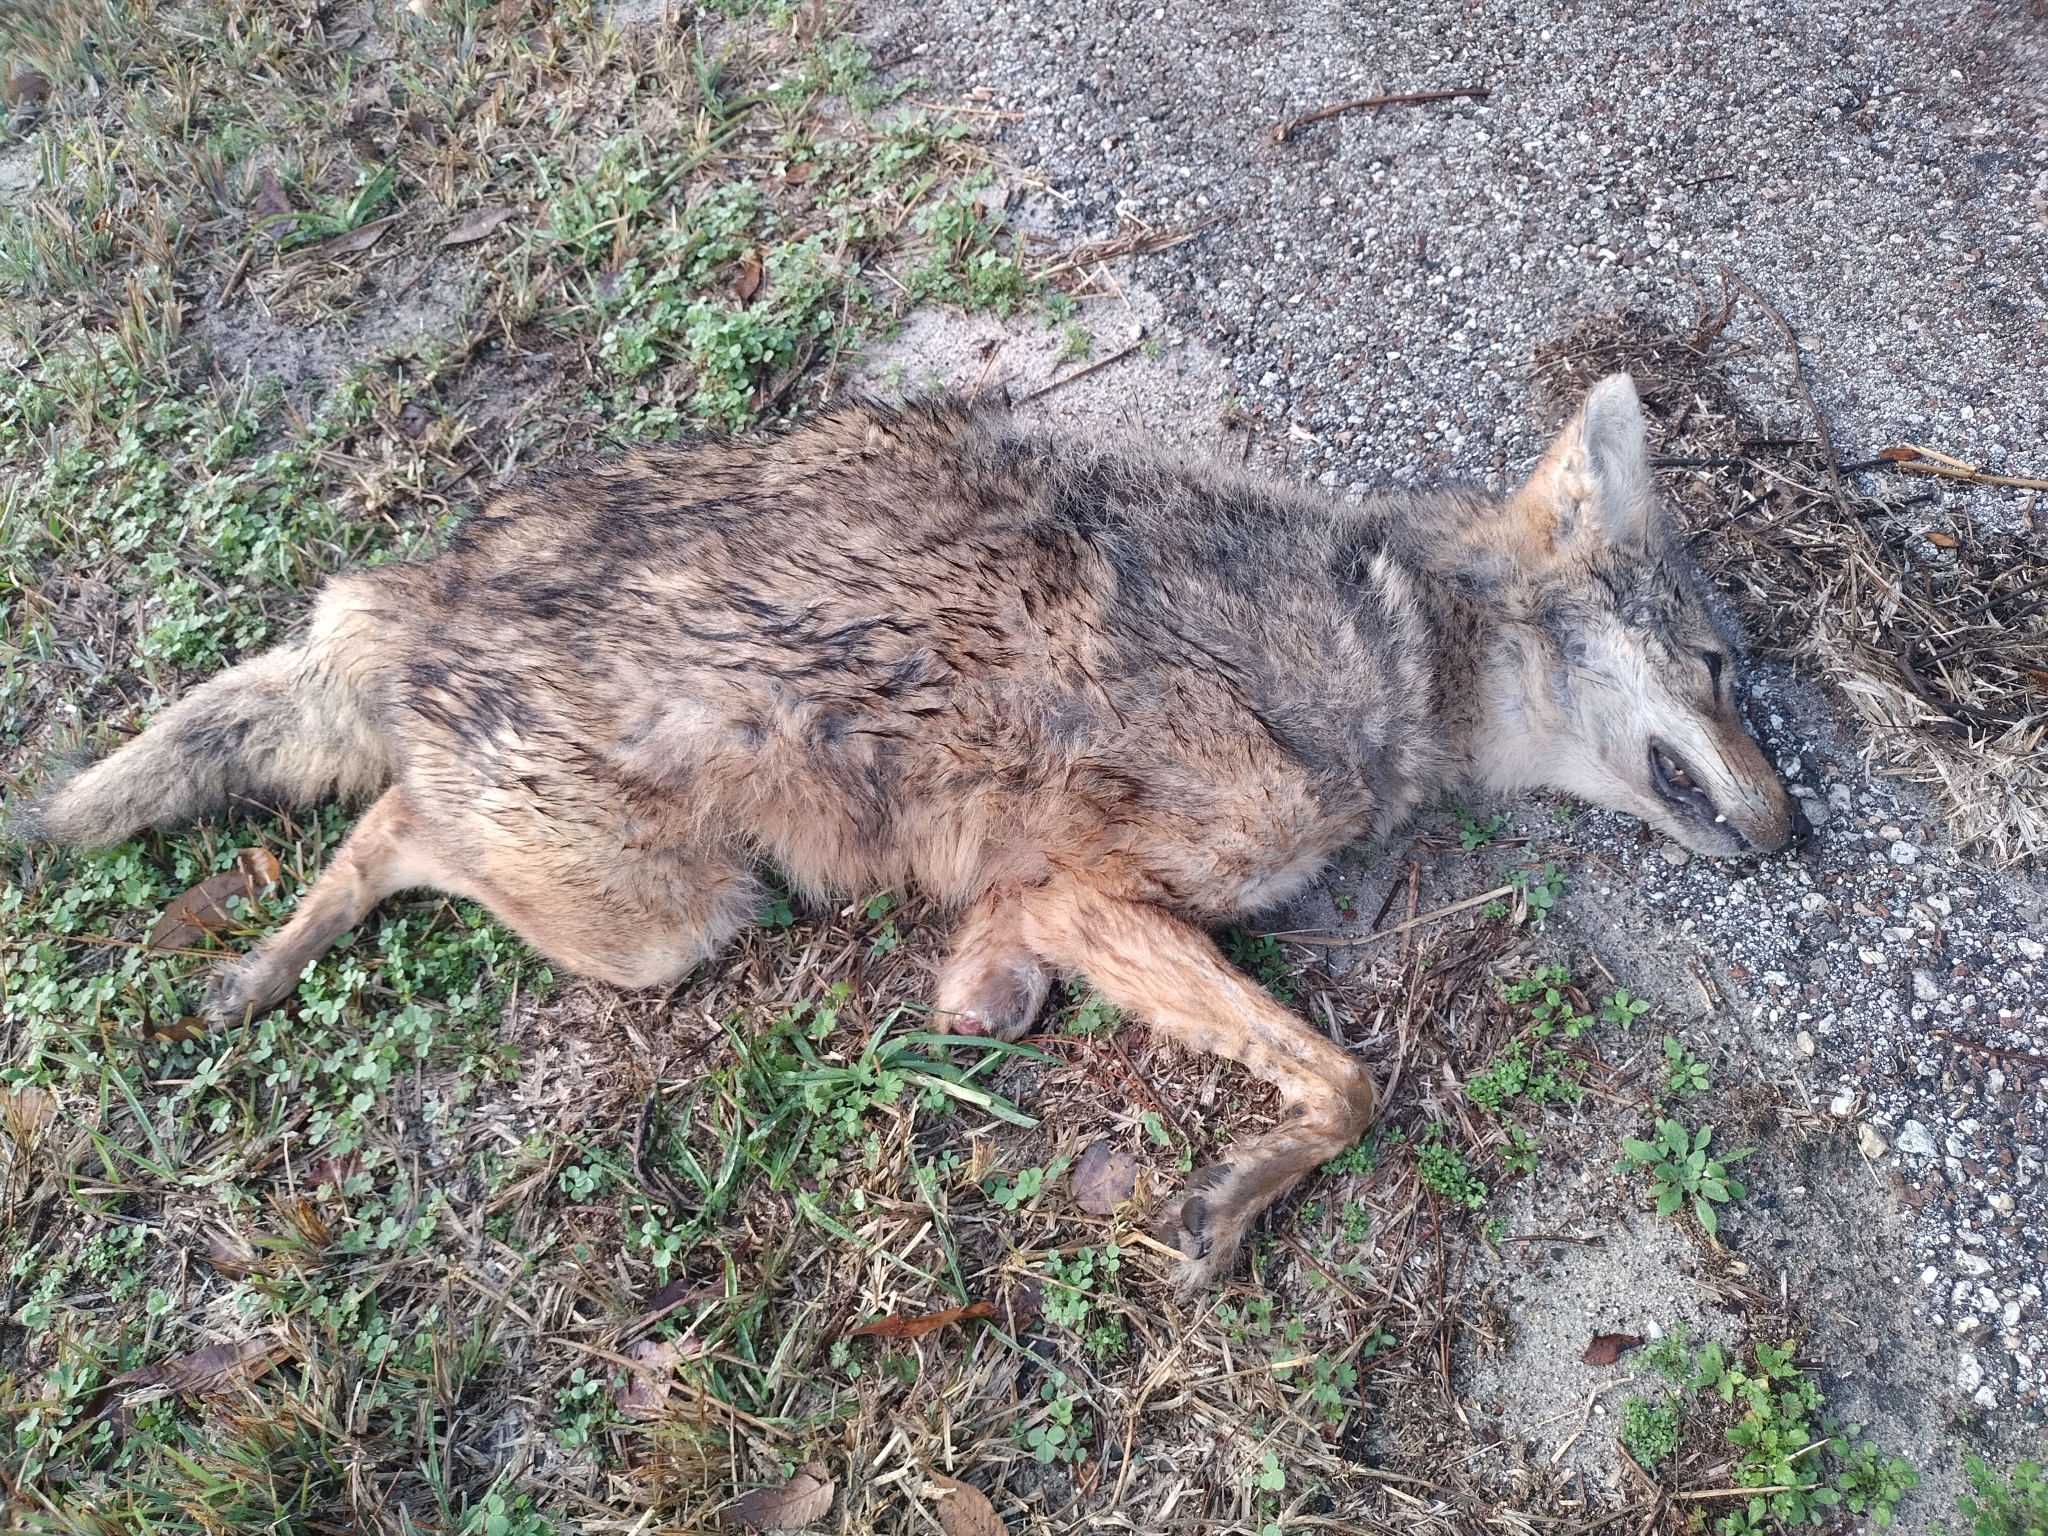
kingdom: Animalia
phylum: Chordata
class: Mammalia
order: Carnivora
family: Canidae
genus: Canis
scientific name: Canis latrans
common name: Coyote
